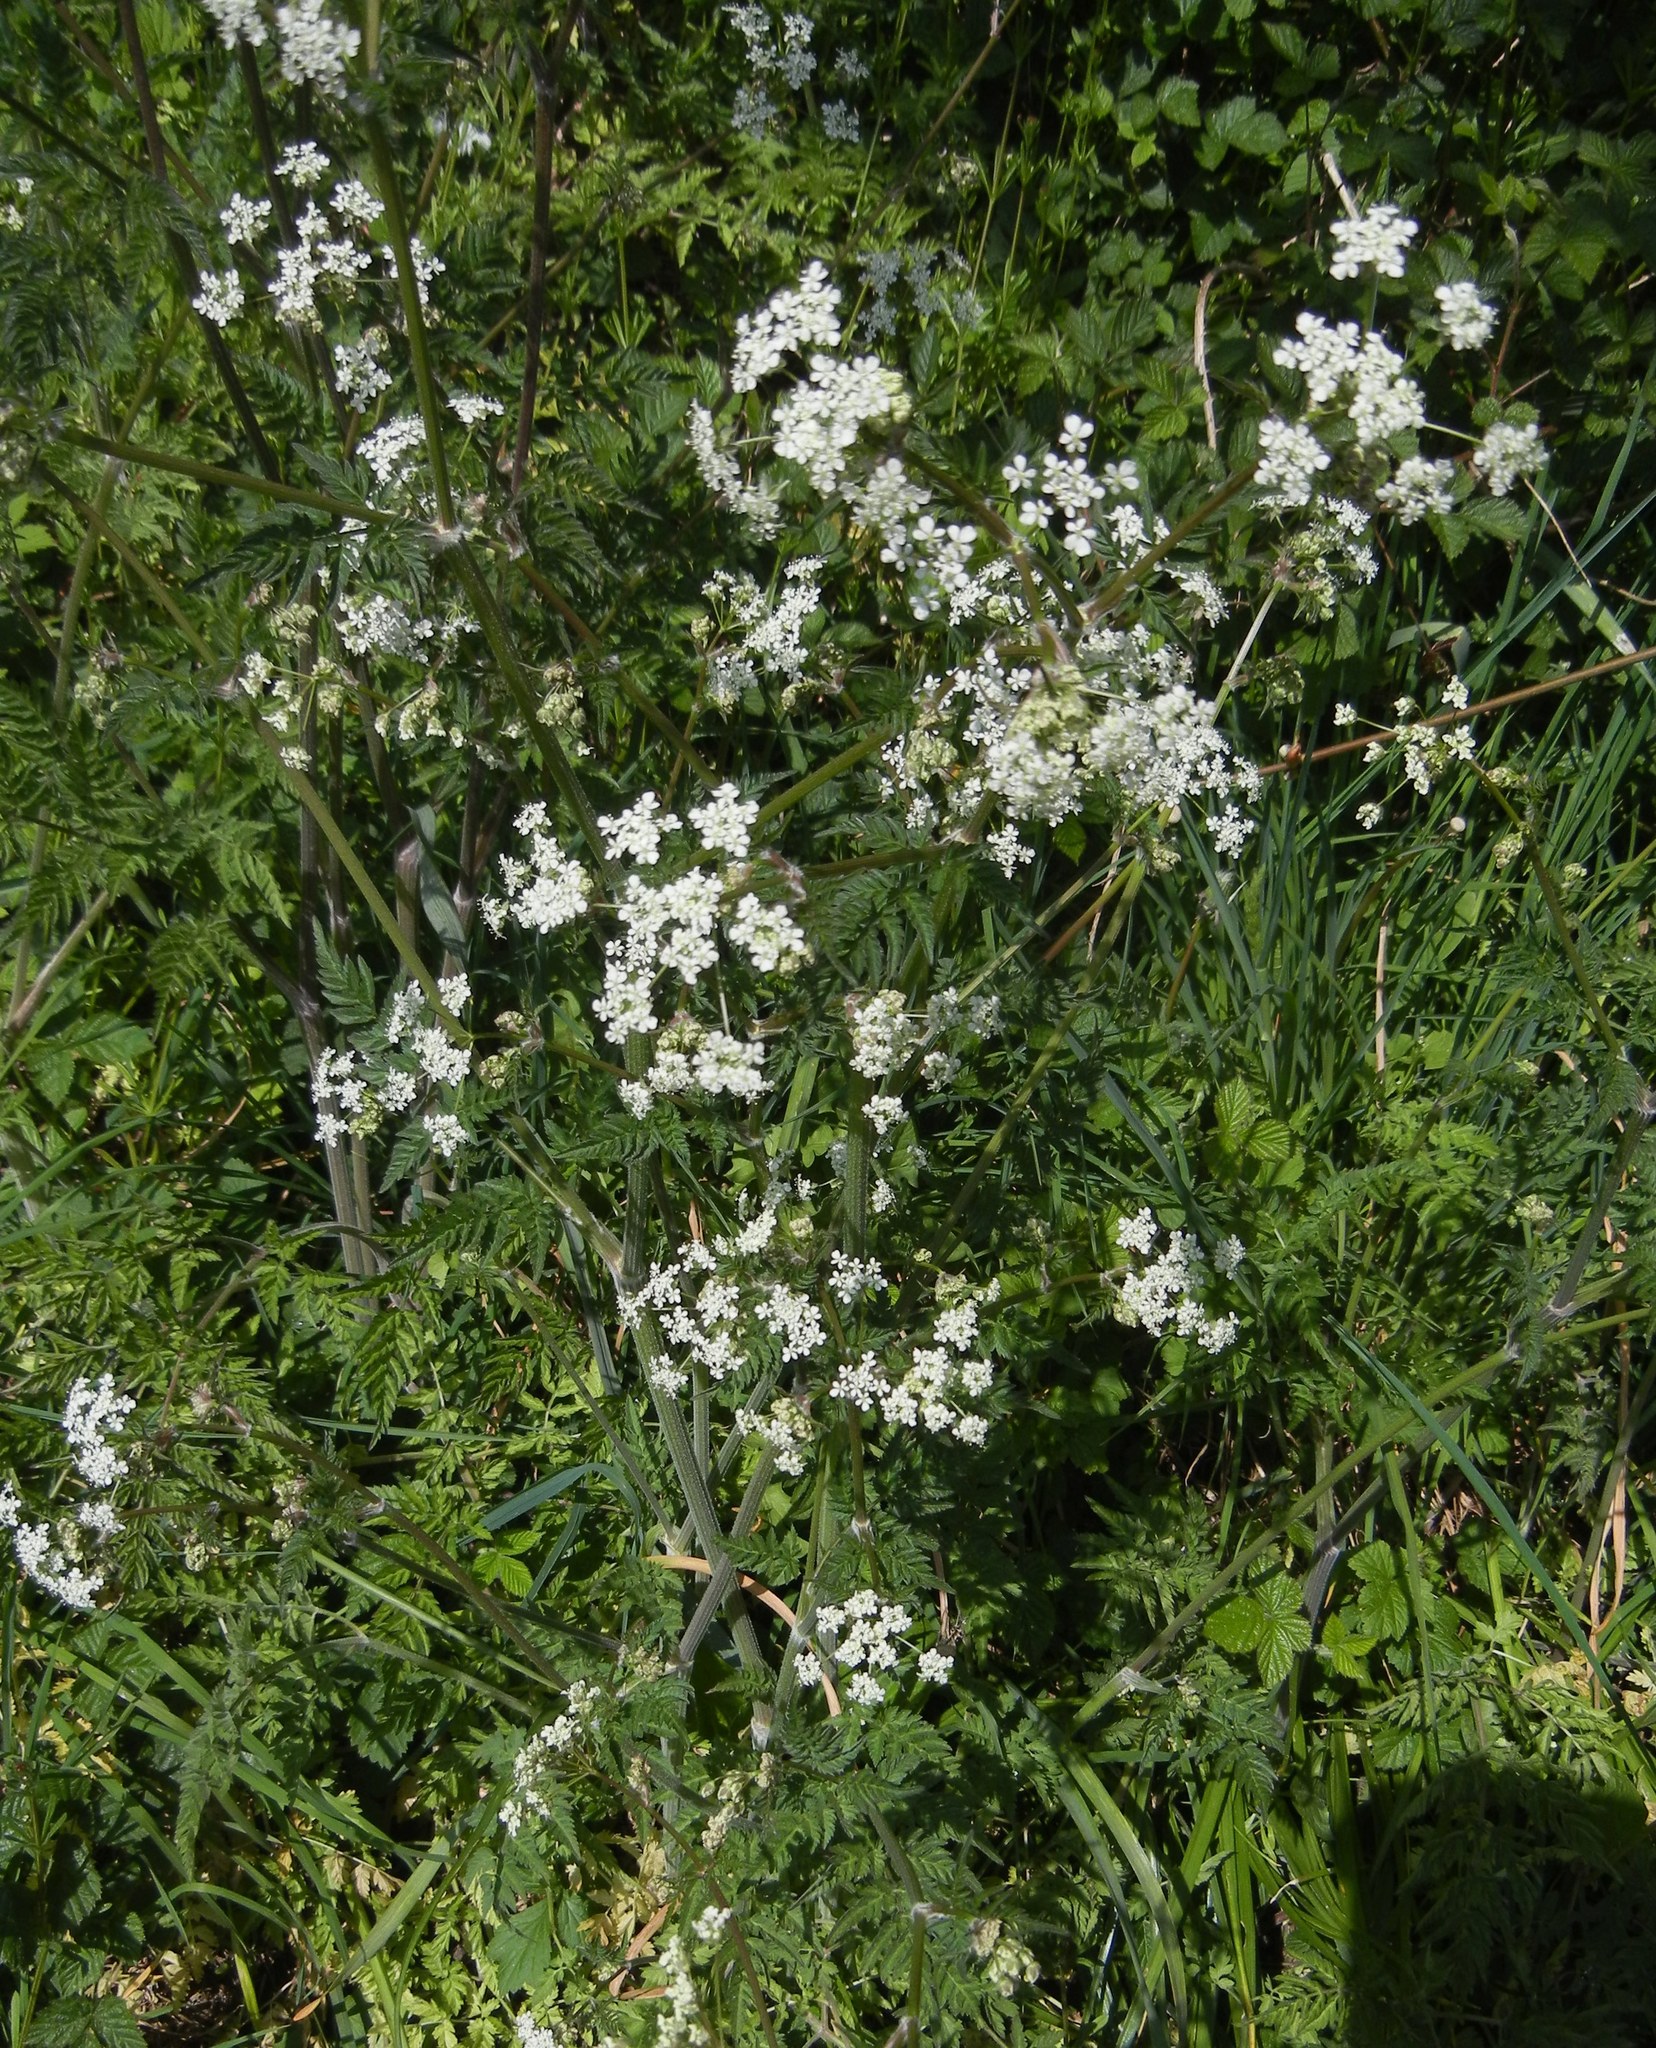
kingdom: Plantae
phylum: Tracheophyta
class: Magnoliopsida
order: Apiales
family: Apiaceae
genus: Anthriscus
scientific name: Anthriscus sylvestris
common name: Cow parsley
